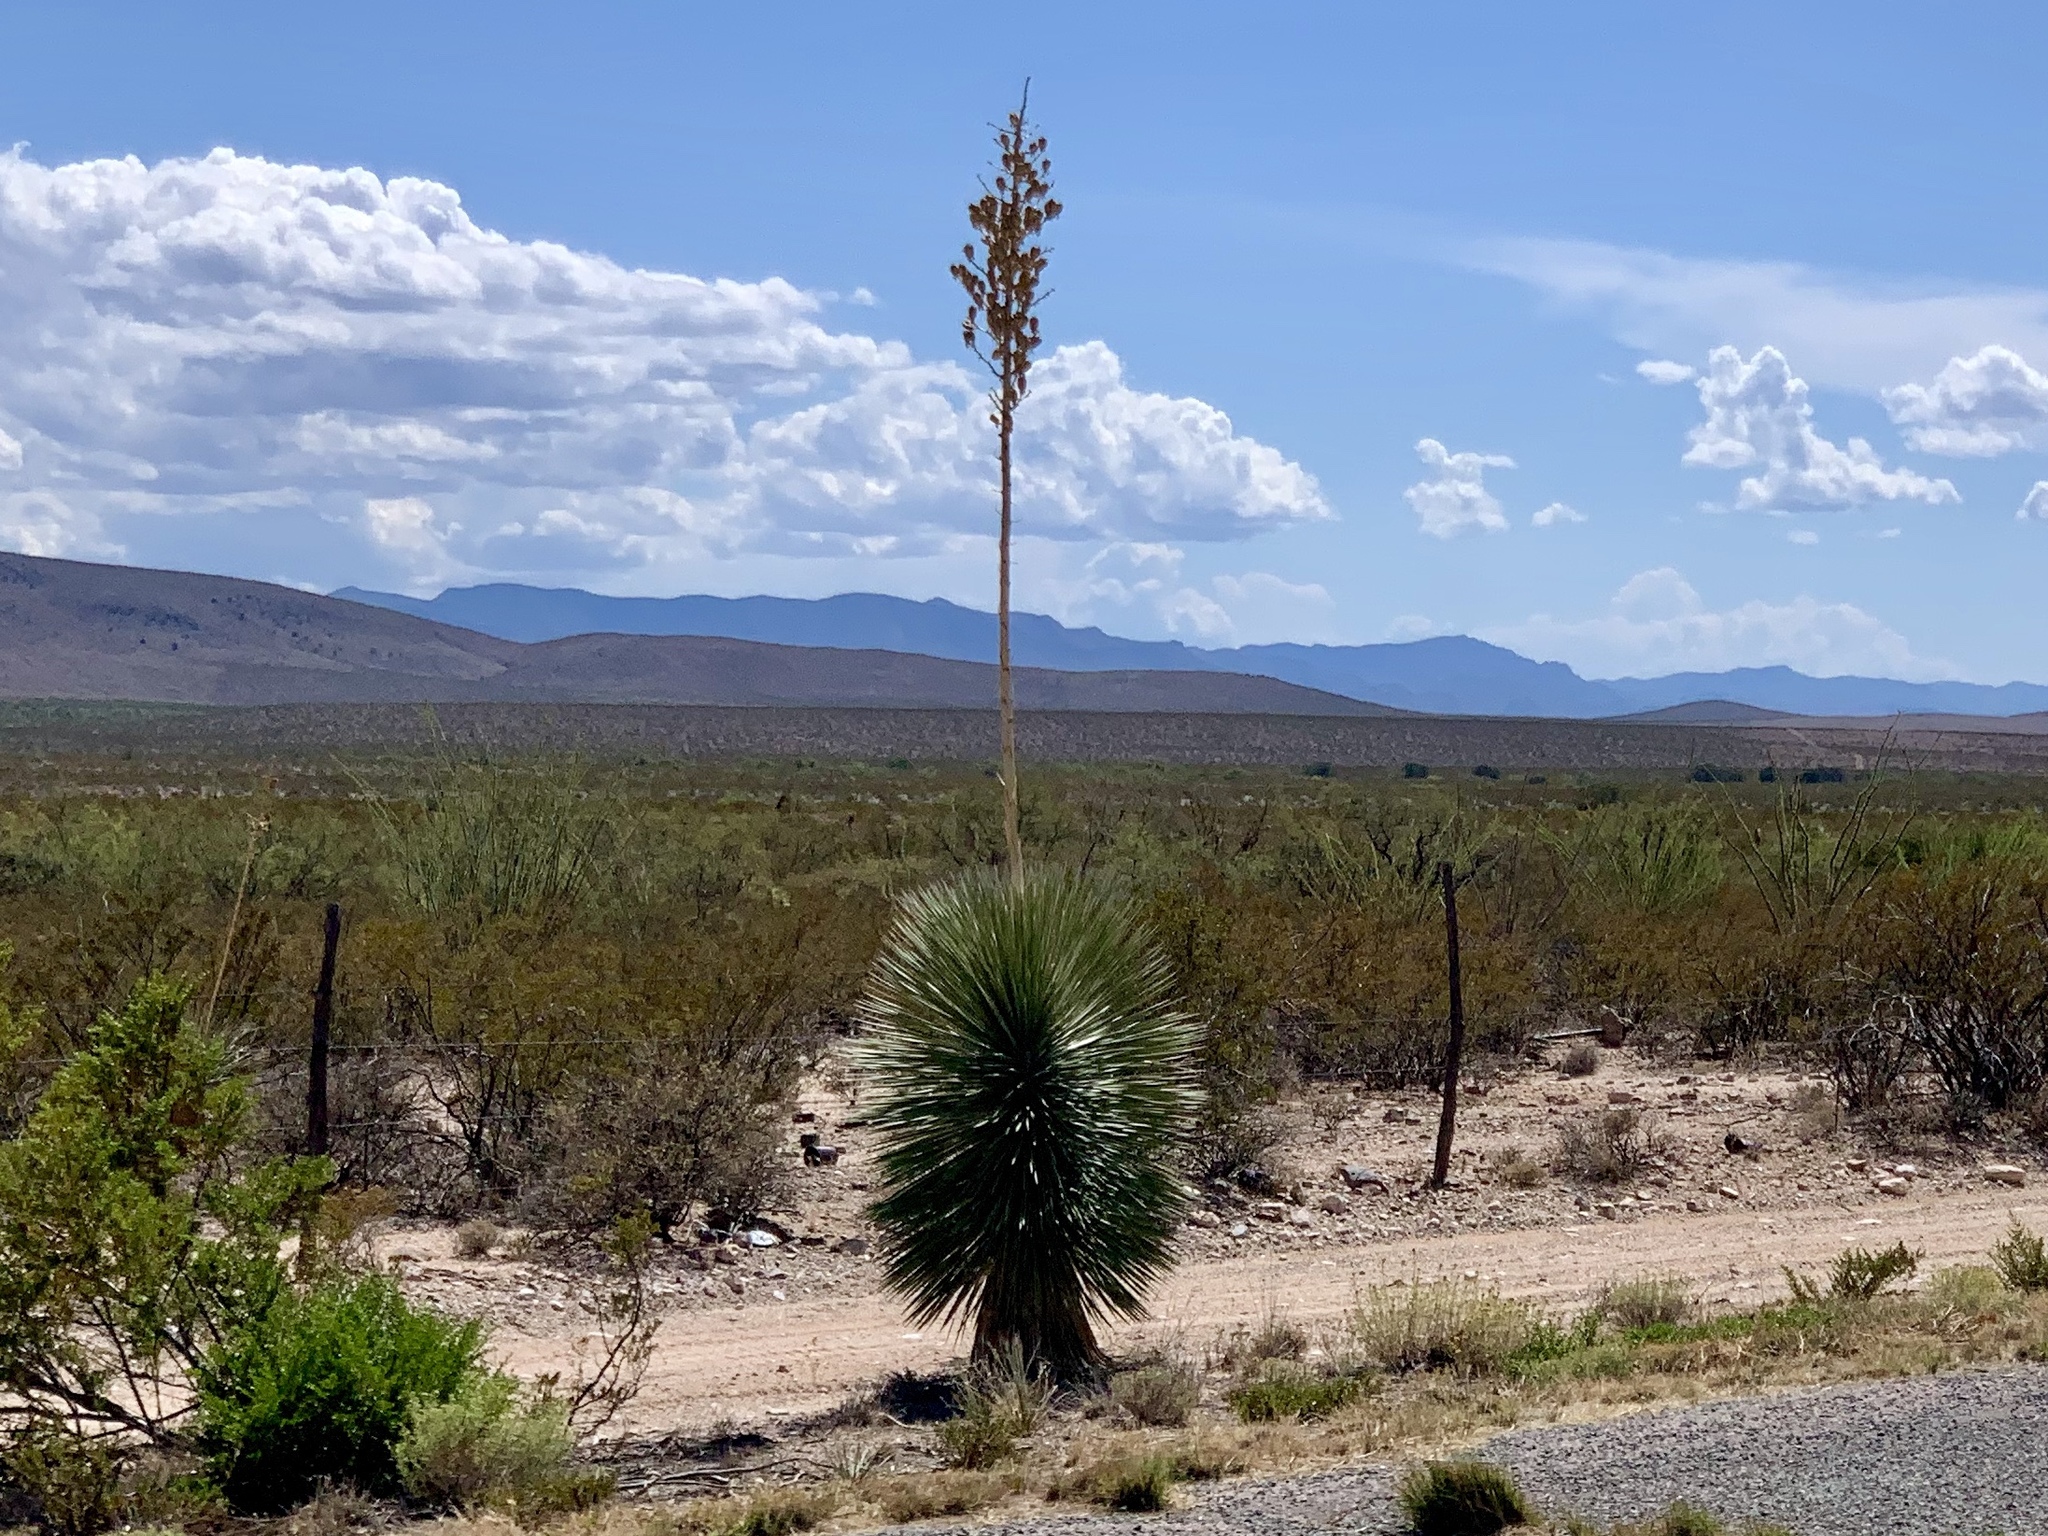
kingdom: Plantae
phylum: Tracheophyta
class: Magnoliopsida
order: Zygophyllales
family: Zygophyllaceae
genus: Larrea
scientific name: Larrea tridentata
